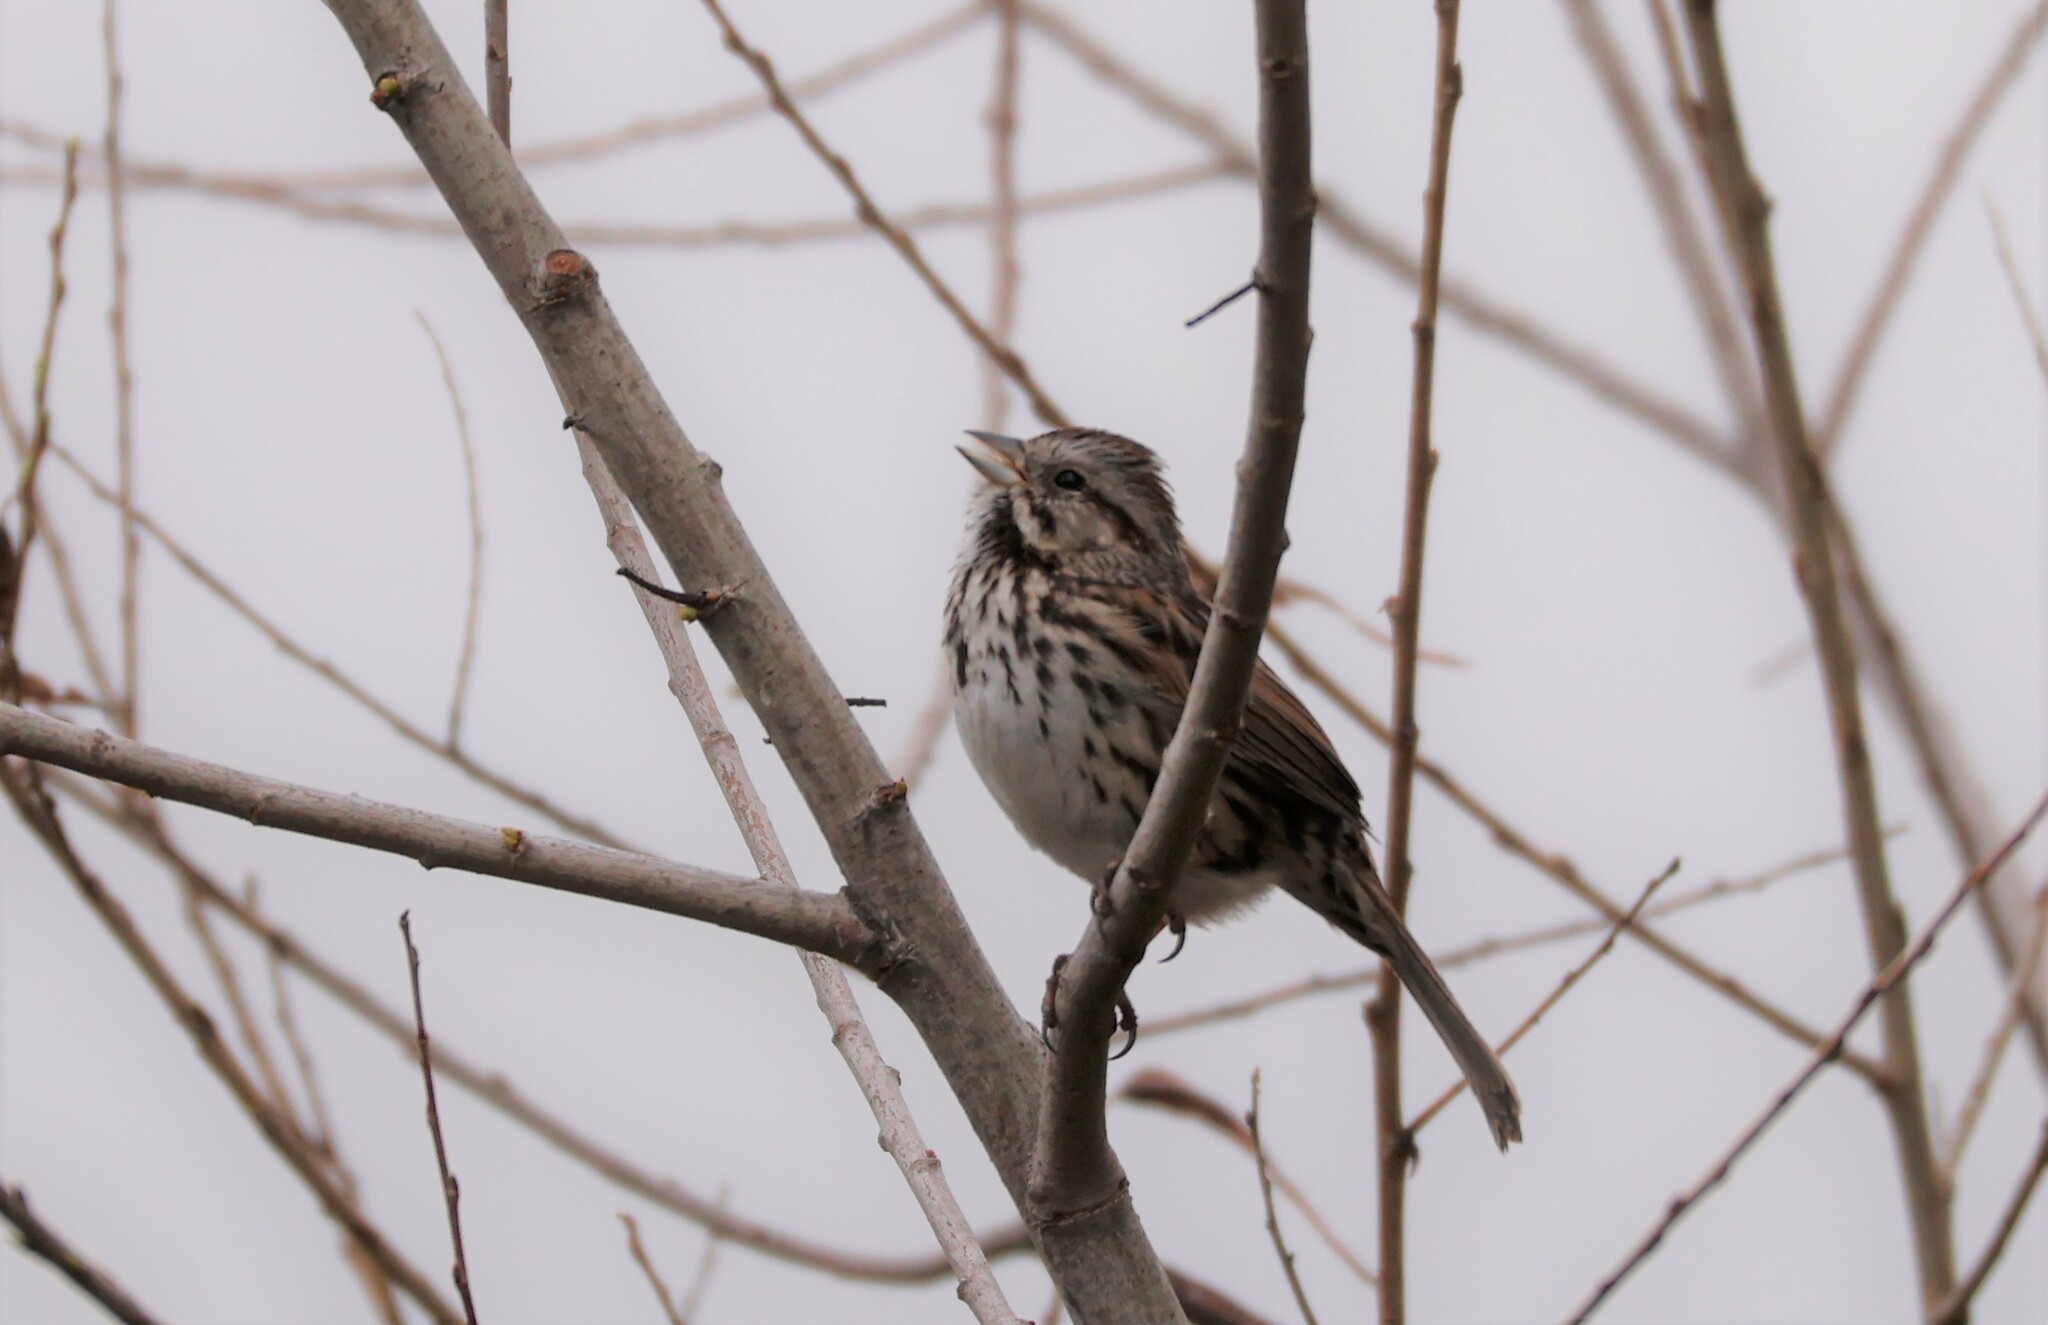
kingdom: Animalia
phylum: Chordata
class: Aves
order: Passeriformes
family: Passerellidae
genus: Melospiza
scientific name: Melospiza melodia
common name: Song sparrow
